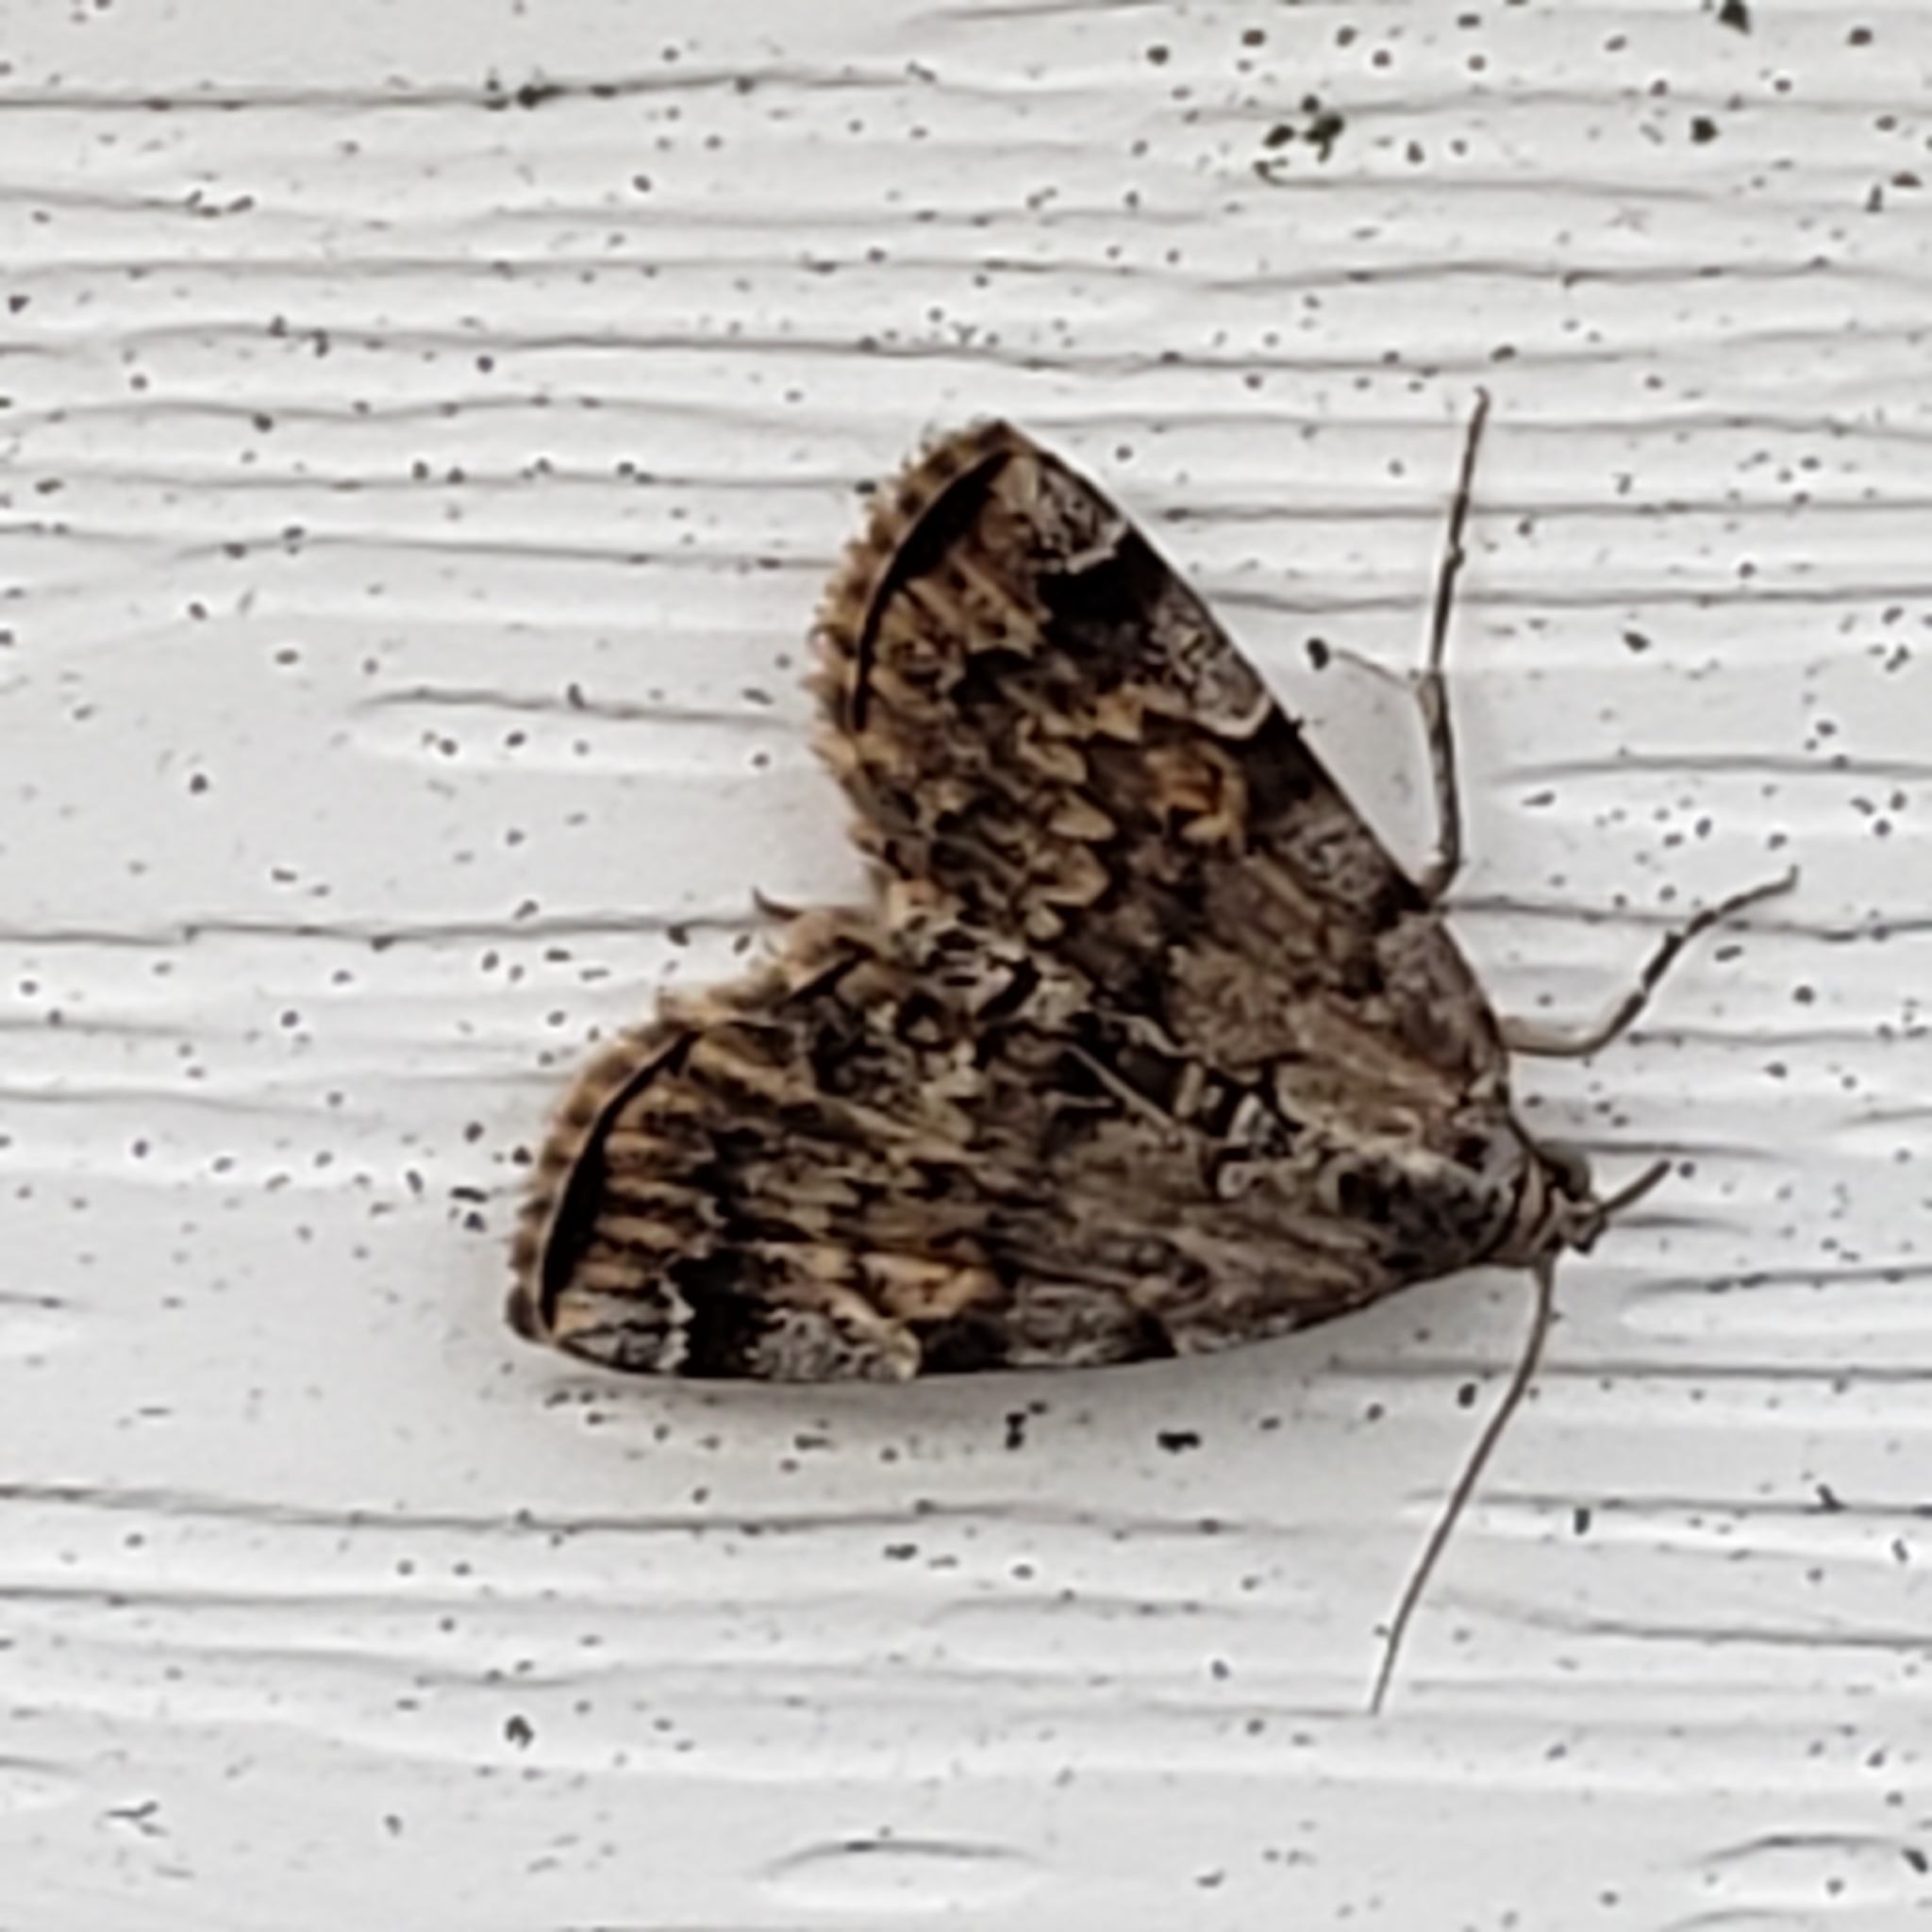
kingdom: Animalia
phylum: Arthropoda
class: Insecta
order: Lepidoptera
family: Erebidae
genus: Idia
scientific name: Idia americalis
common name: American idia moth
